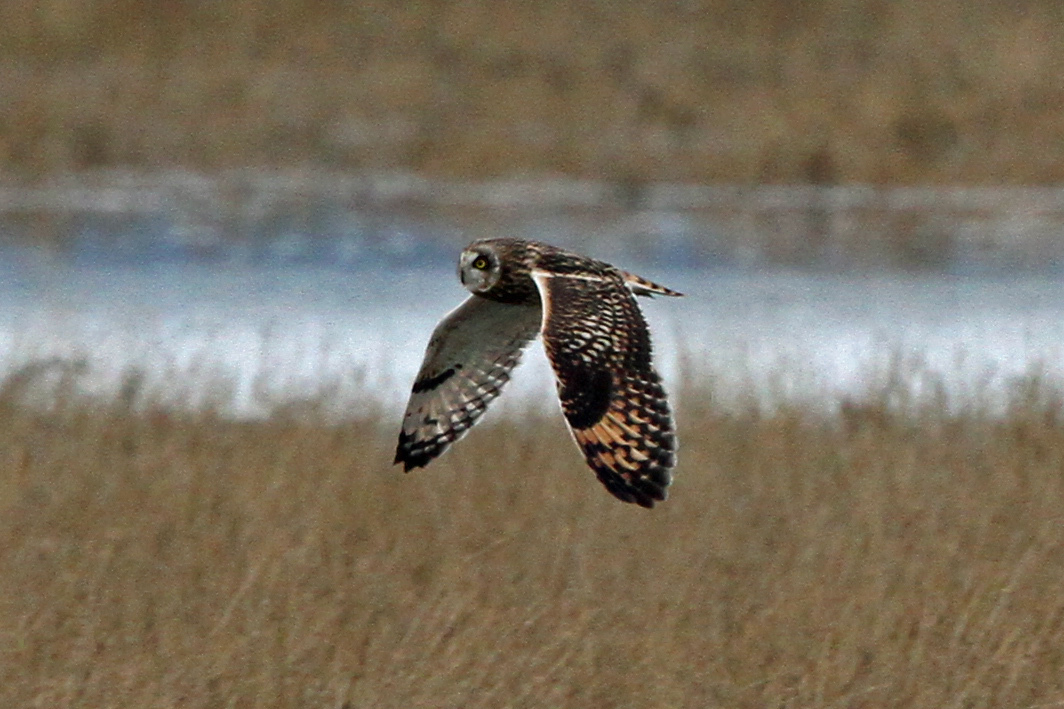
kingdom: Animalia
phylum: Chordata
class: Aves
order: Strigiformes
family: Strigidae
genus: Asio
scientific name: Asio flammeus
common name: Short-eared owl
